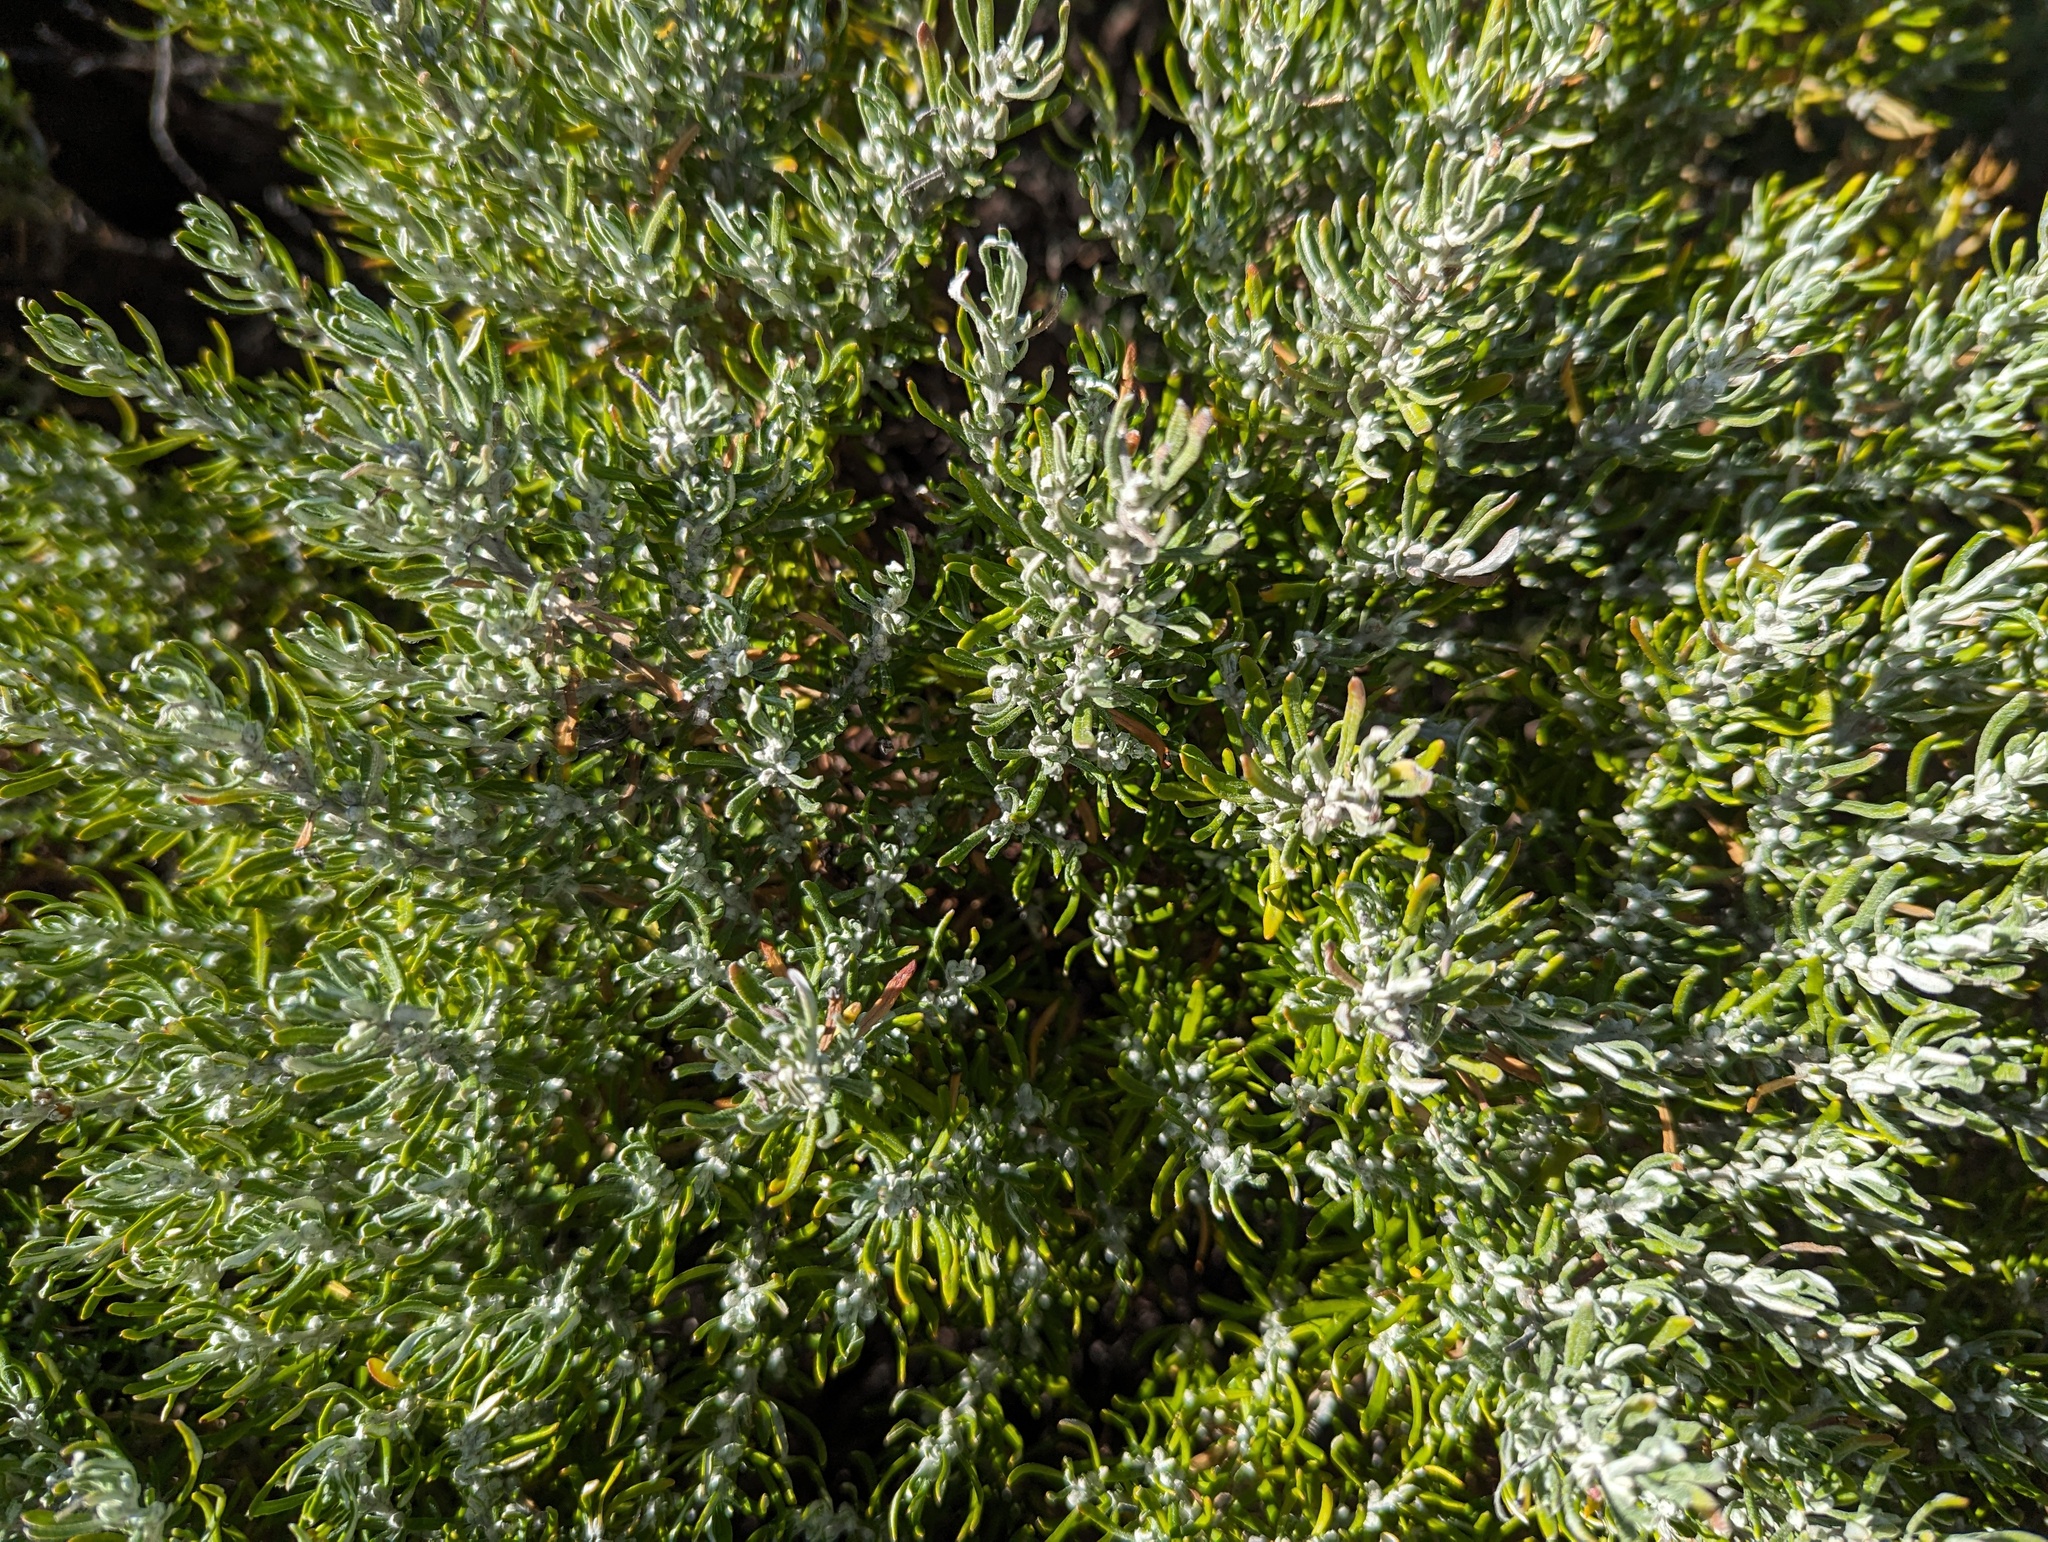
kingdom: Plantae
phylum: Tracheophyta
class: Magnoliopsida
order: Asterales
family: Asteraceae
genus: Olearia
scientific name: Olearia axillaris
